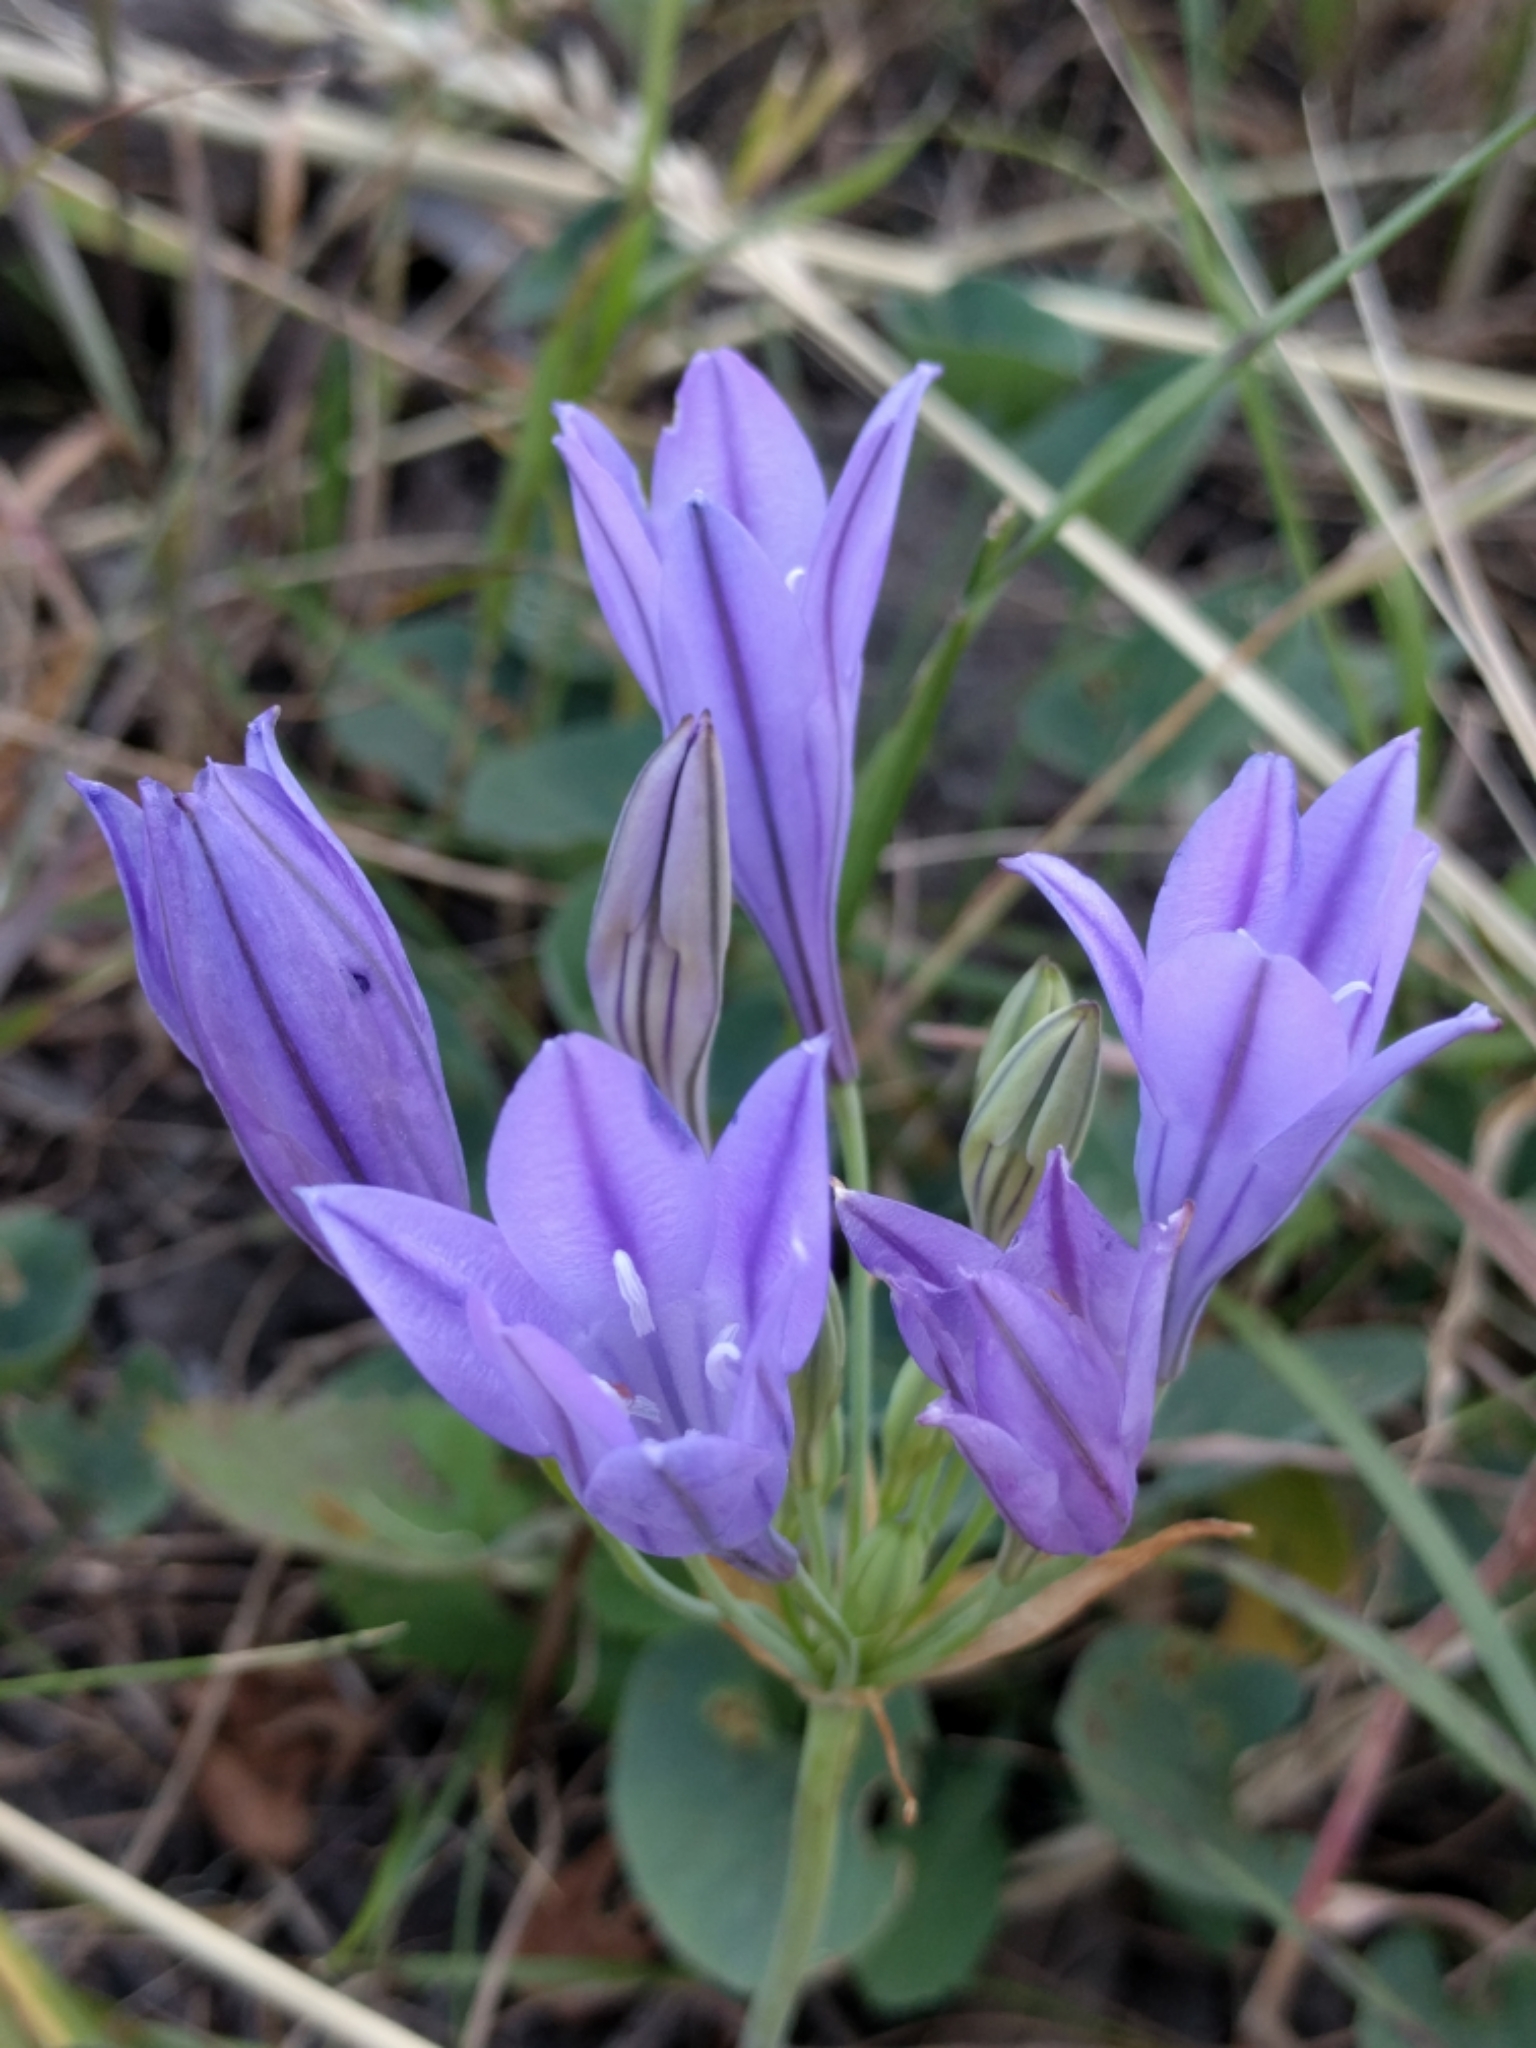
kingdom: Plantae
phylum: Tracheophyta
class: Liliopsida
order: Asparagales
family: Asparagaceae
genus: Triteleia
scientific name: Triteleia laxa
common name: Triplet-lily
